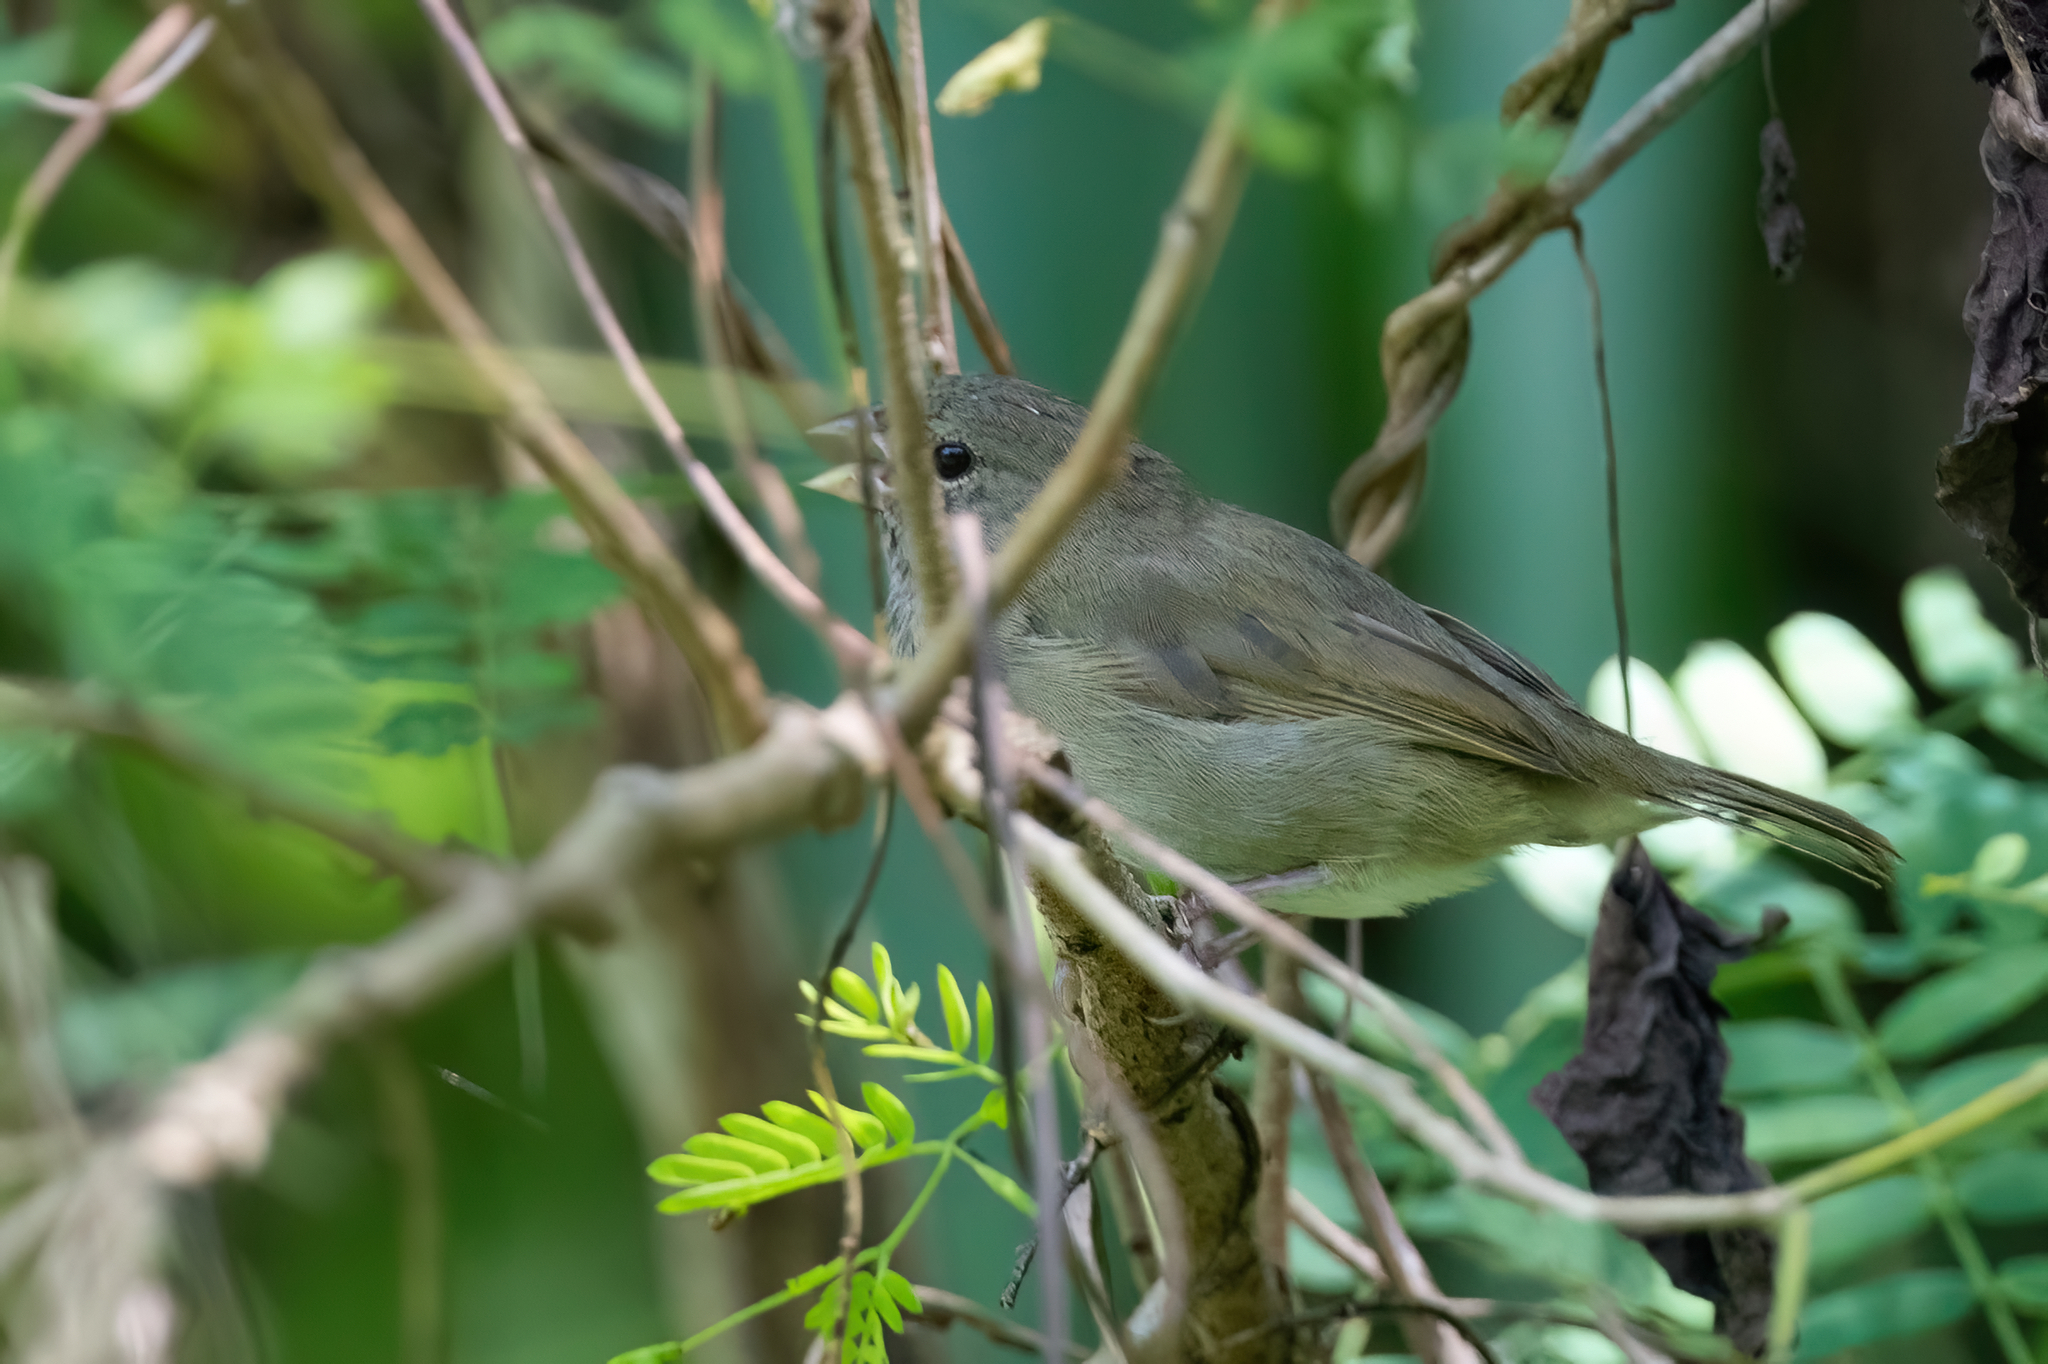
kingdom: Animalia
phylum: Chordata
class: Aves
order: Passeriformes
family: Thraupidae
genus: Melanospiza
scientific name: Melanospiza bicolor
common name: Black-faced grassquit
